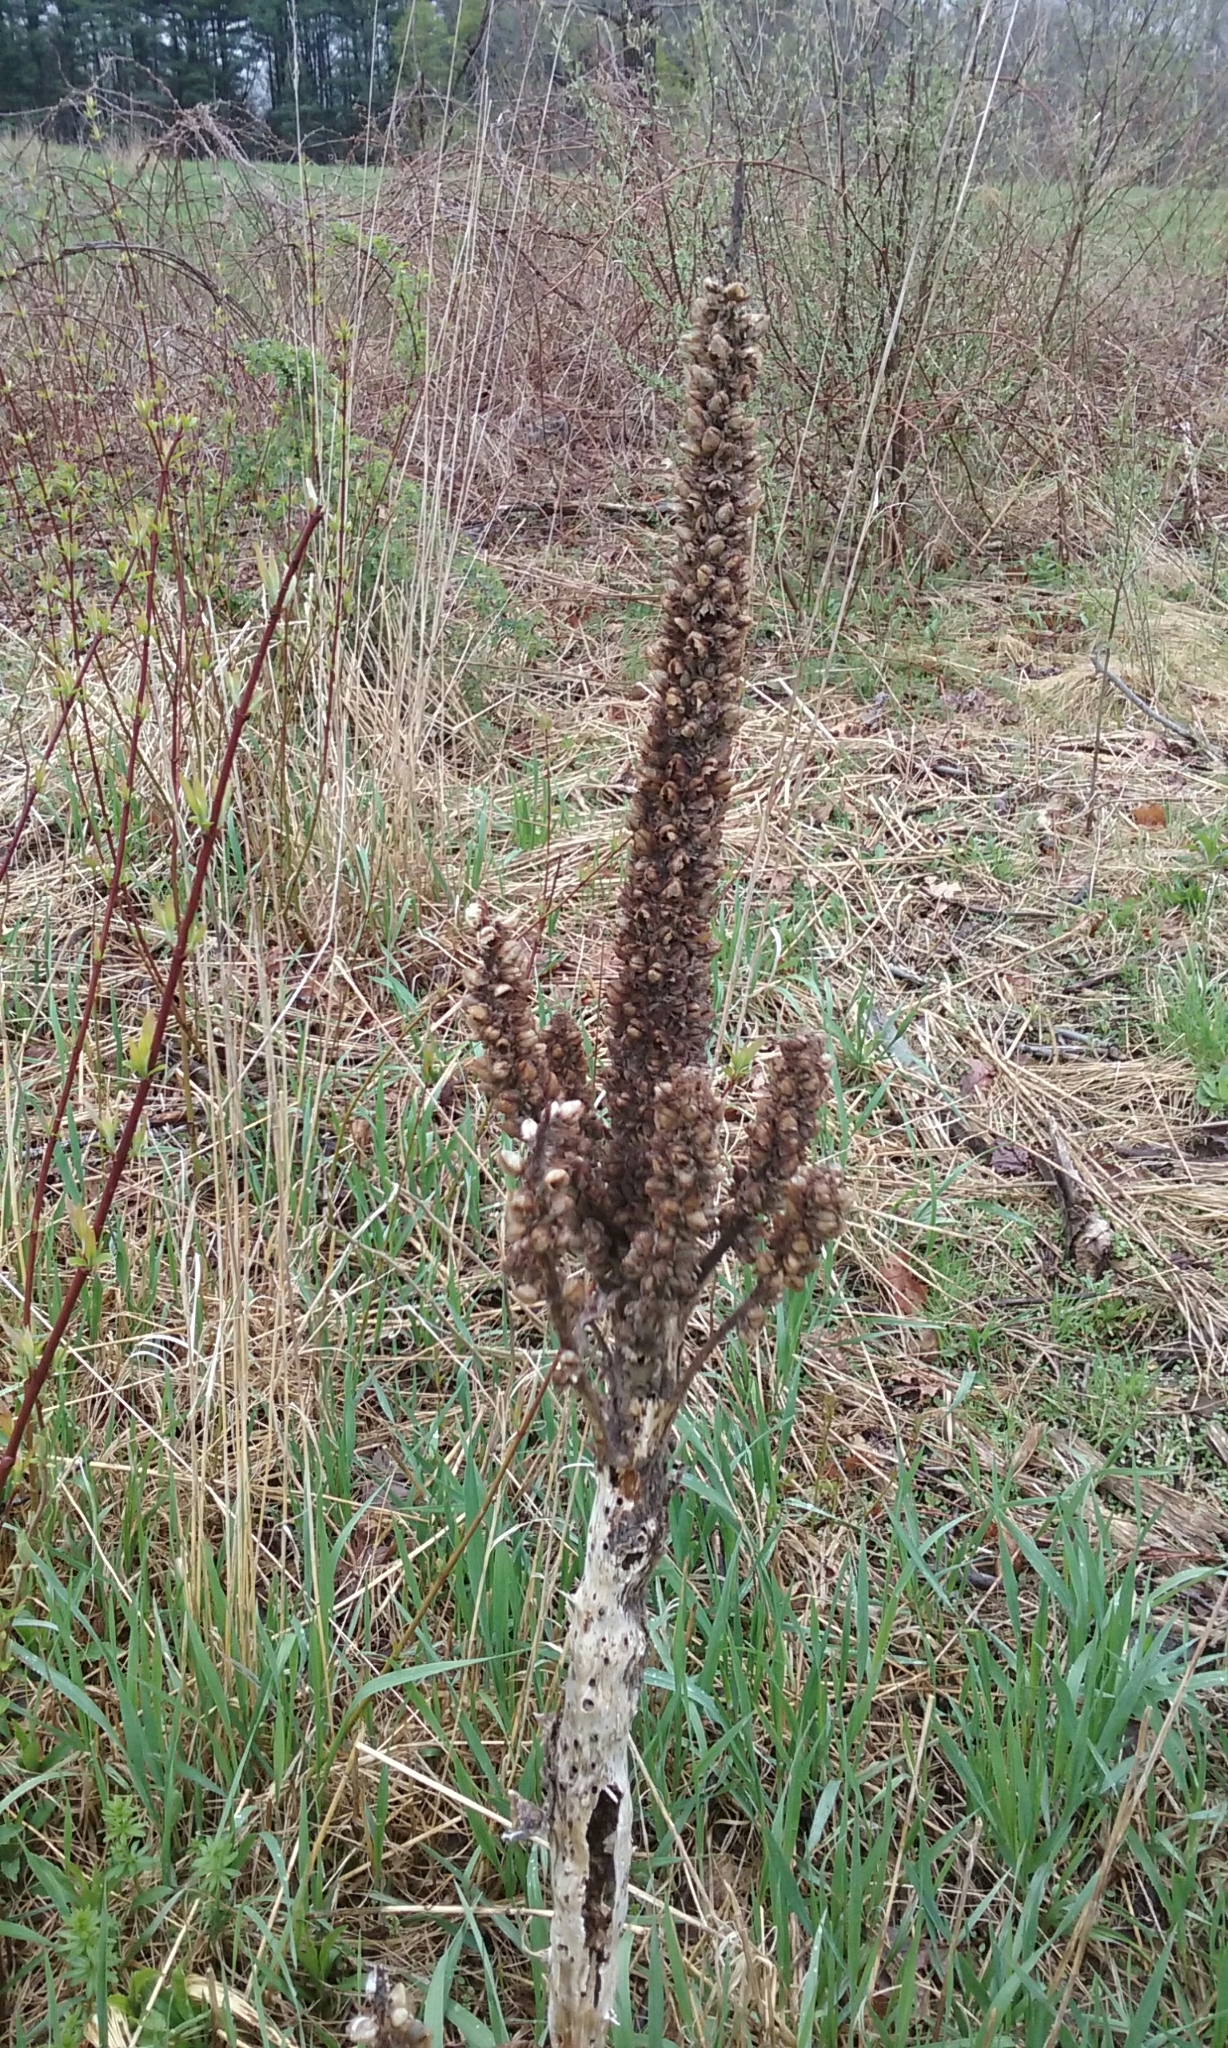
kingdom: Plantae
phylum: Tracheophyta
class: Magnoliopsida
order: Lamiales
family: Scrophulariaceae
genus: Verbascum
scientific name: Verbascum thapsus
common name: Common mullein
